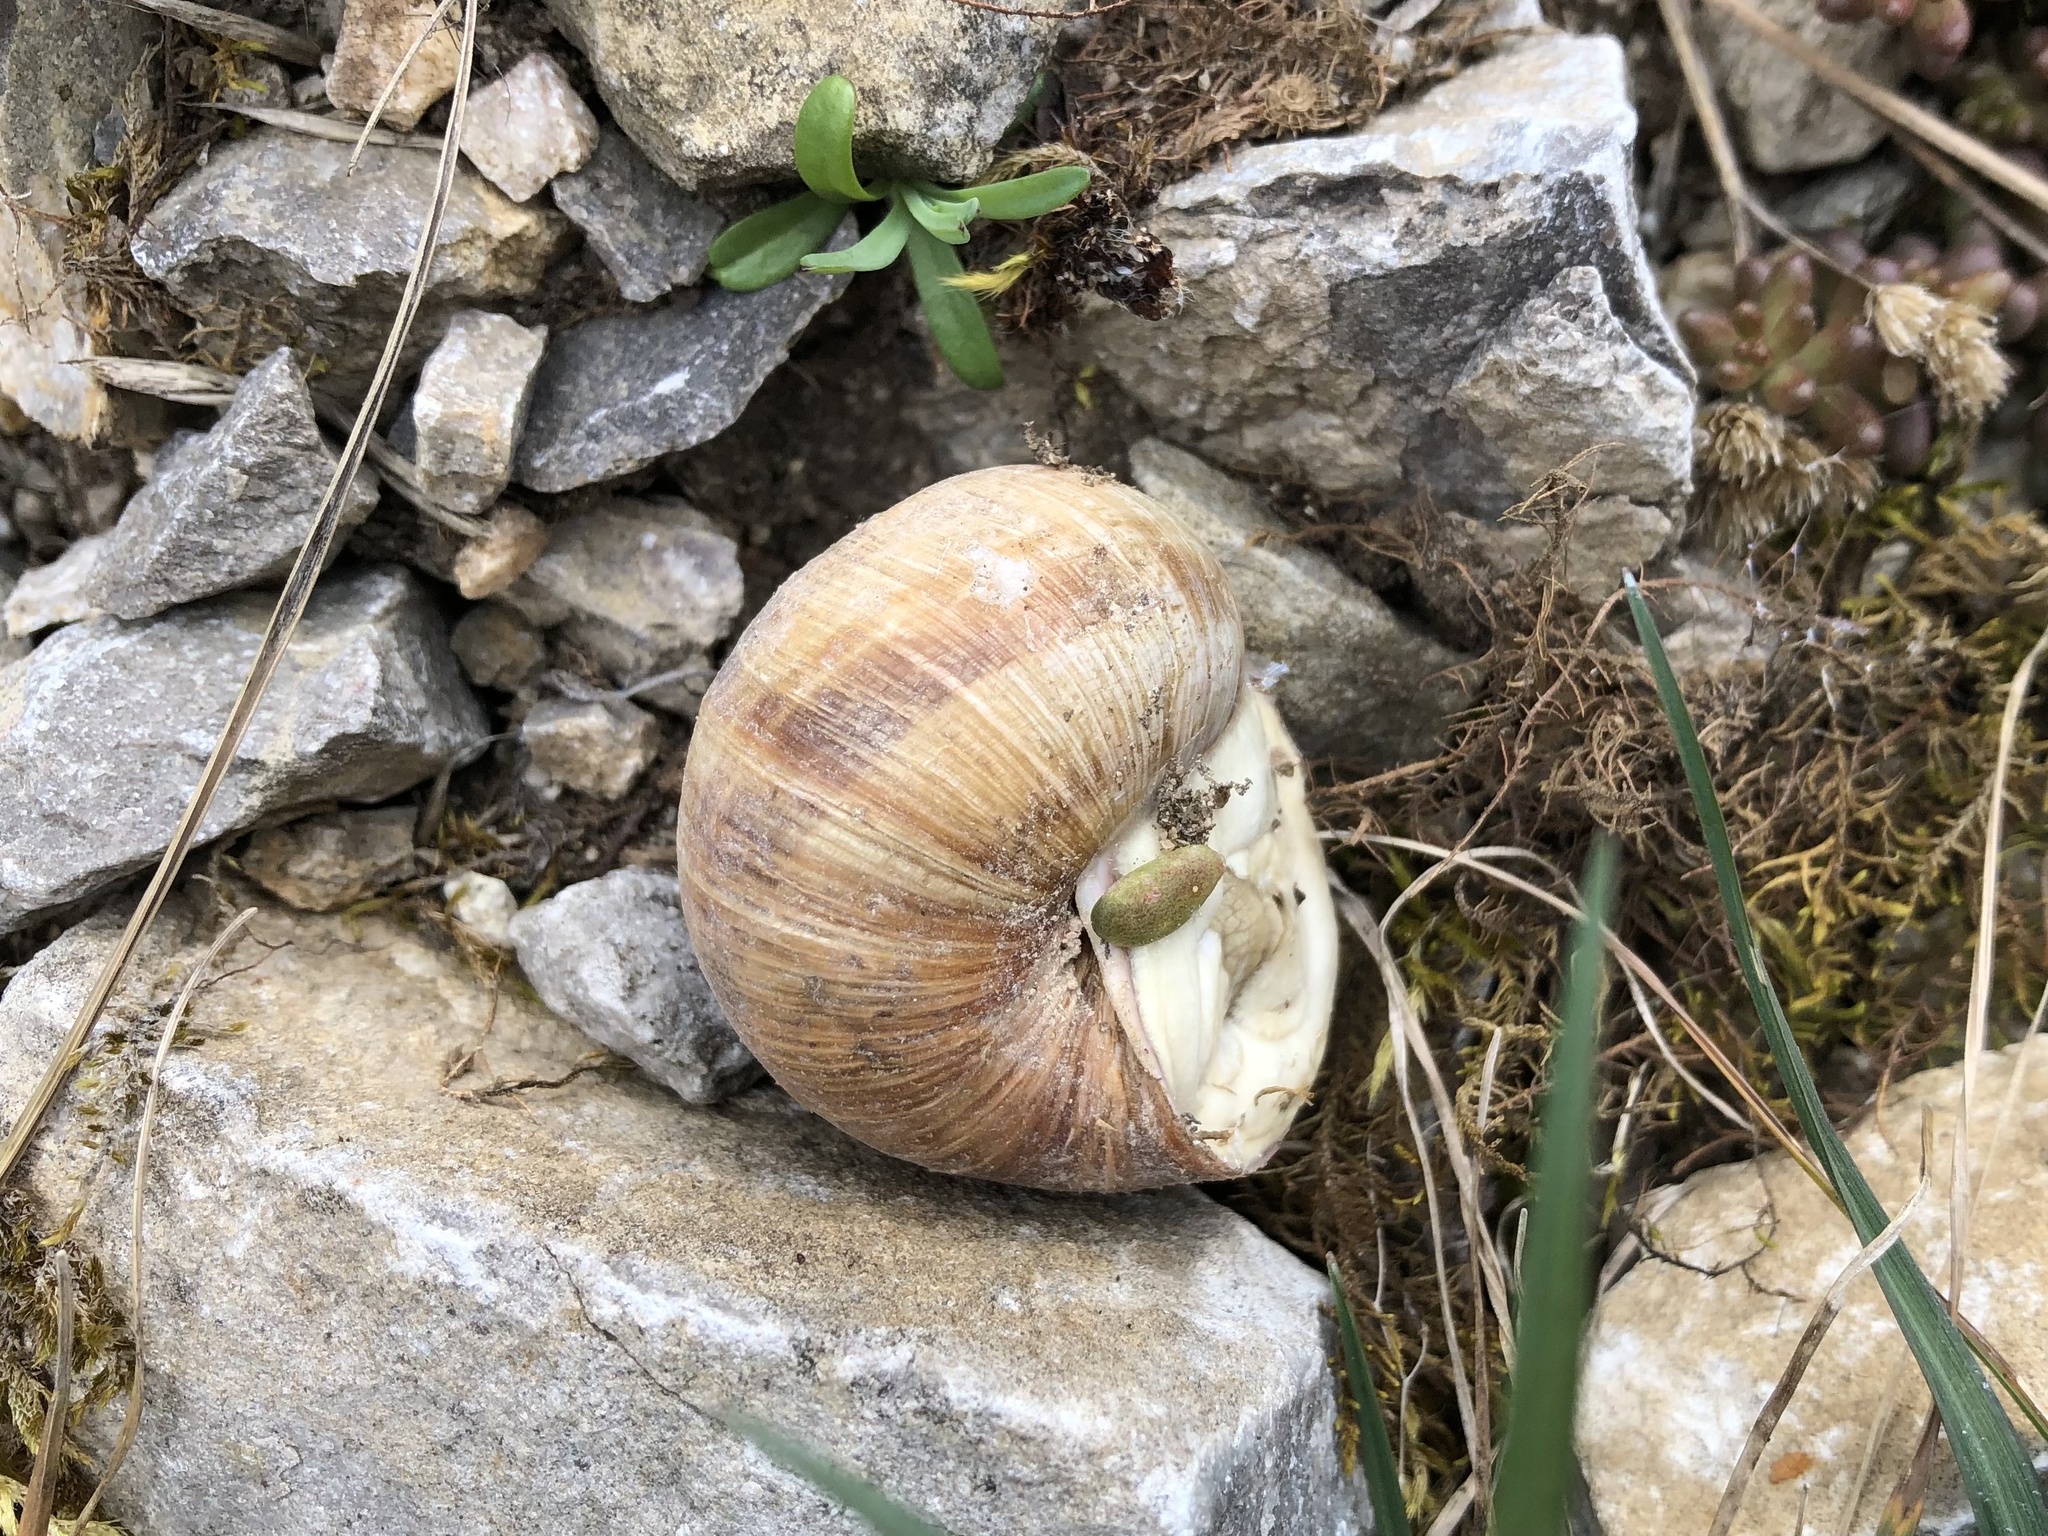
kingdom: Animalia
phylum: Mollusca
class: Gastropoda
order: Stylommatophora
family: Helicidae
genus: Helix
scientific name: Helix pomatia
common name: Roman snail
